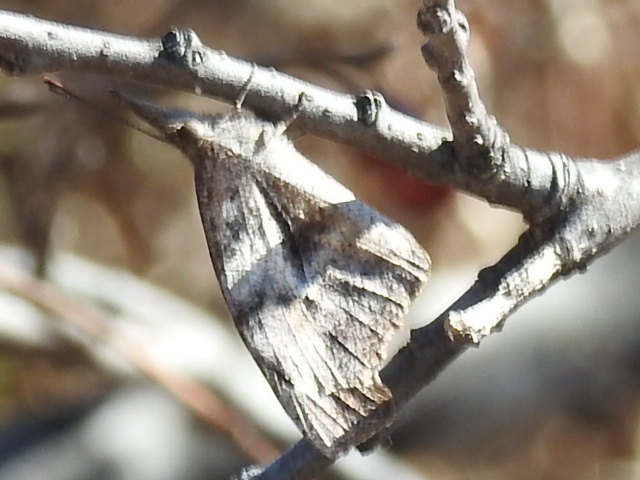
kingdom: Animalia
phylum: Arthropoda
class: Insecta
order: Lepidoptera
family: Nymphalidae
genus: Libytheana
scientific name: Libytheana carinenta
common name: American snout
